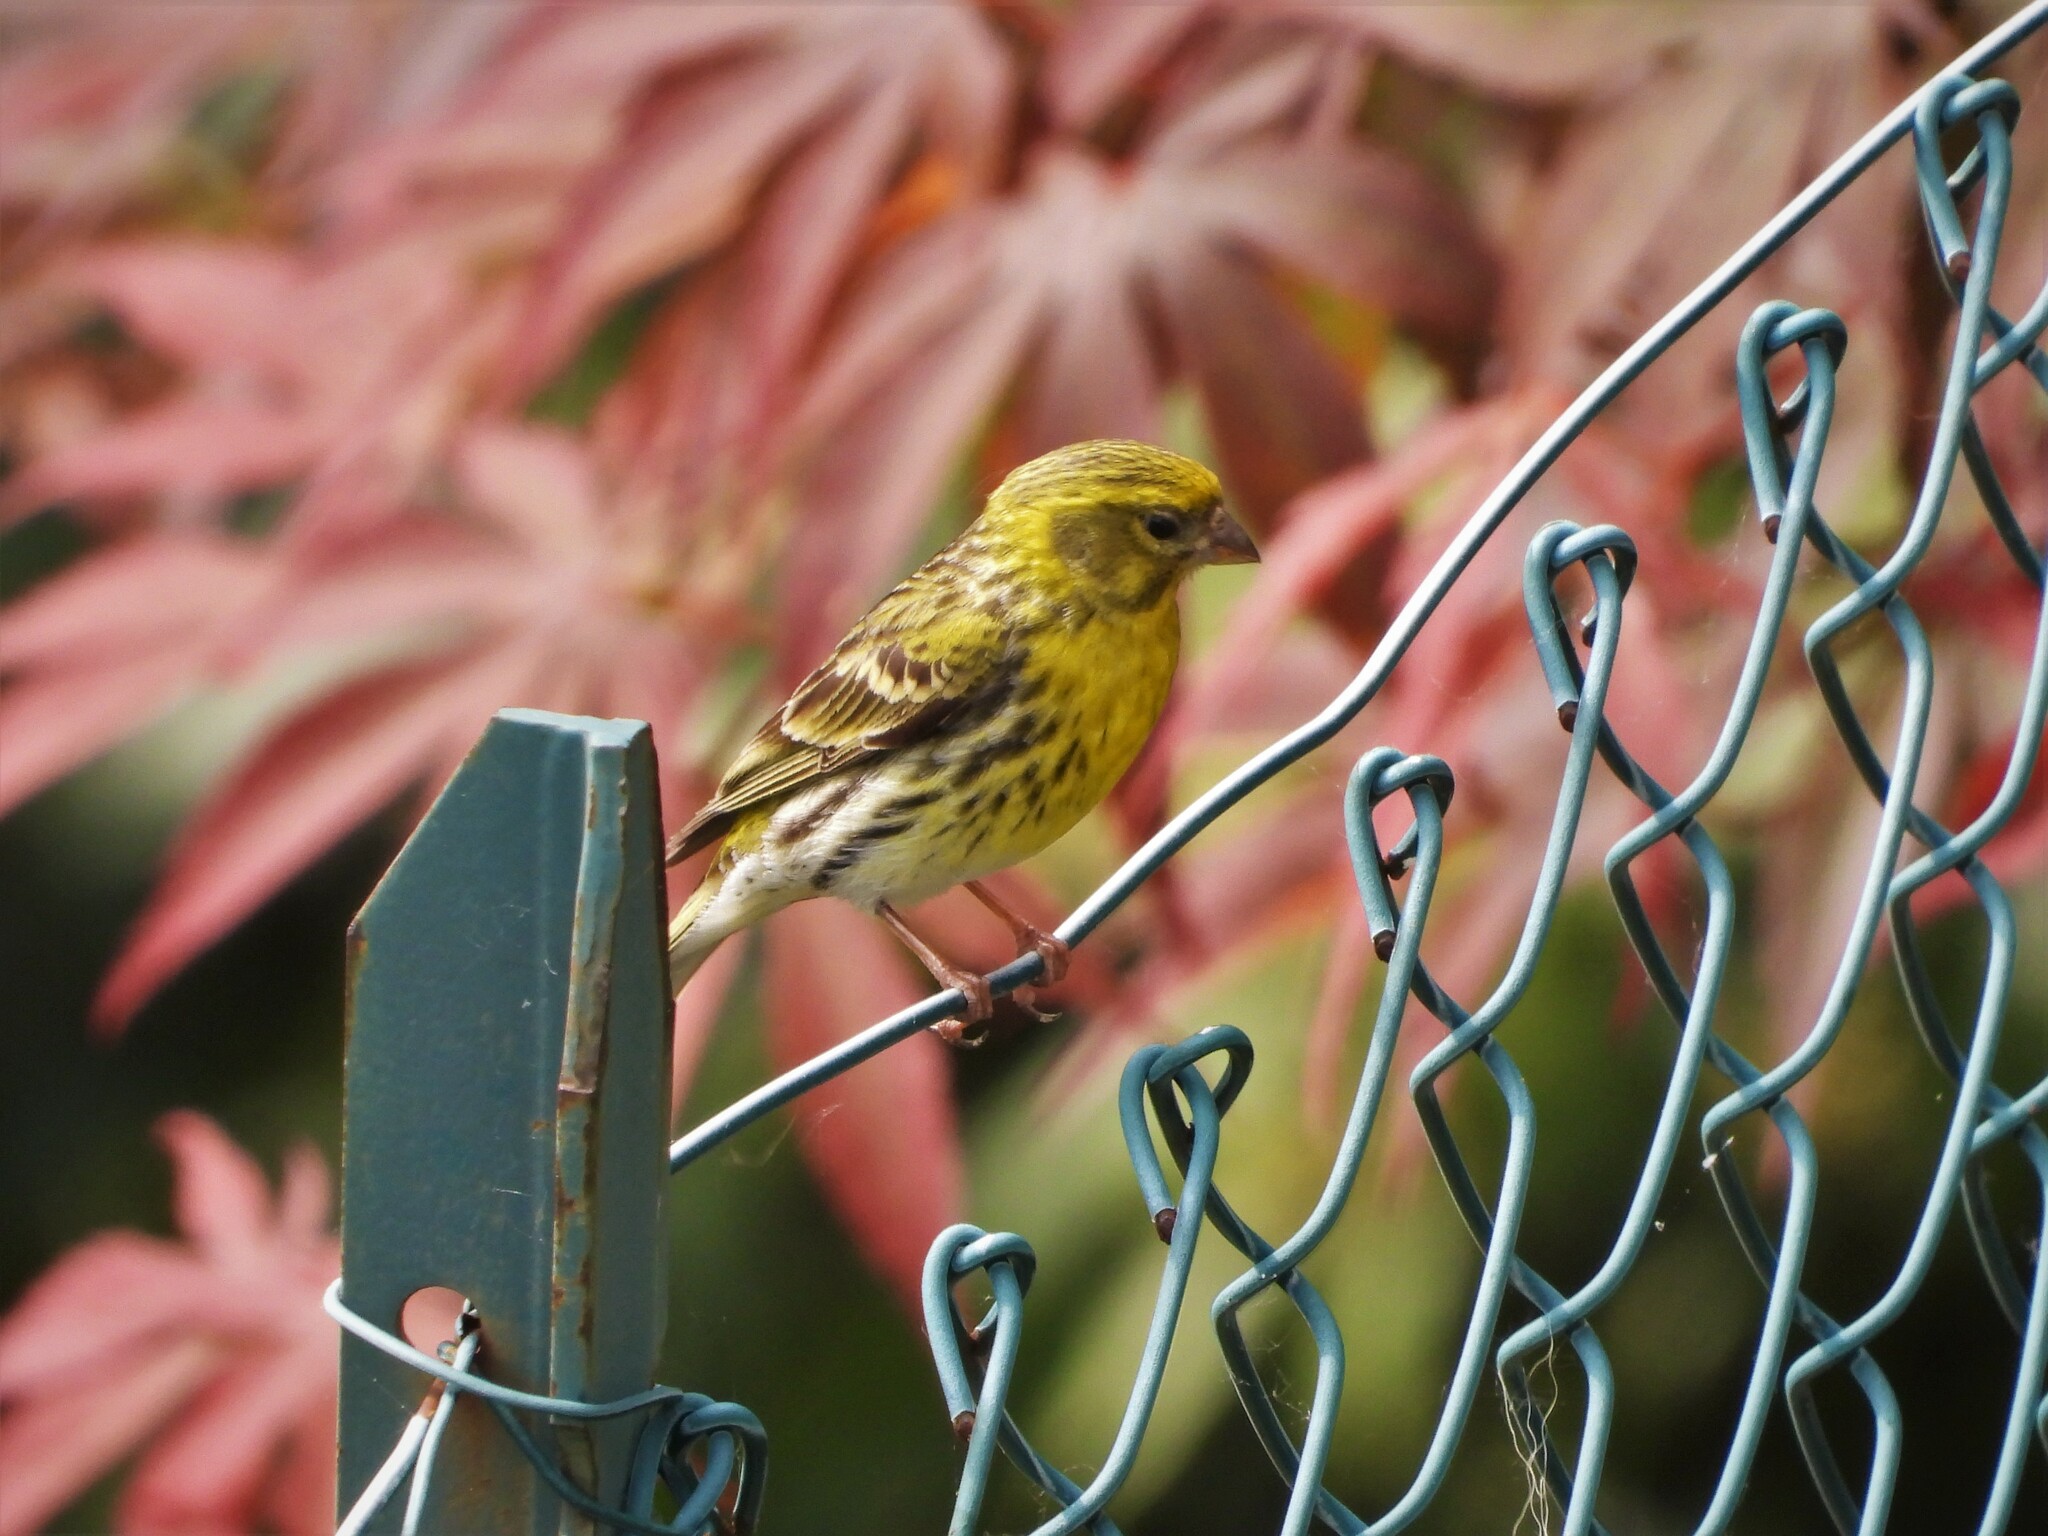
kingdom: Animalia
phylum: Chordata
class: Aves
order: Passeriformes
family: Fringillidae
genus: Serinus
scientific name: Serinus serinus
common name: European serin
